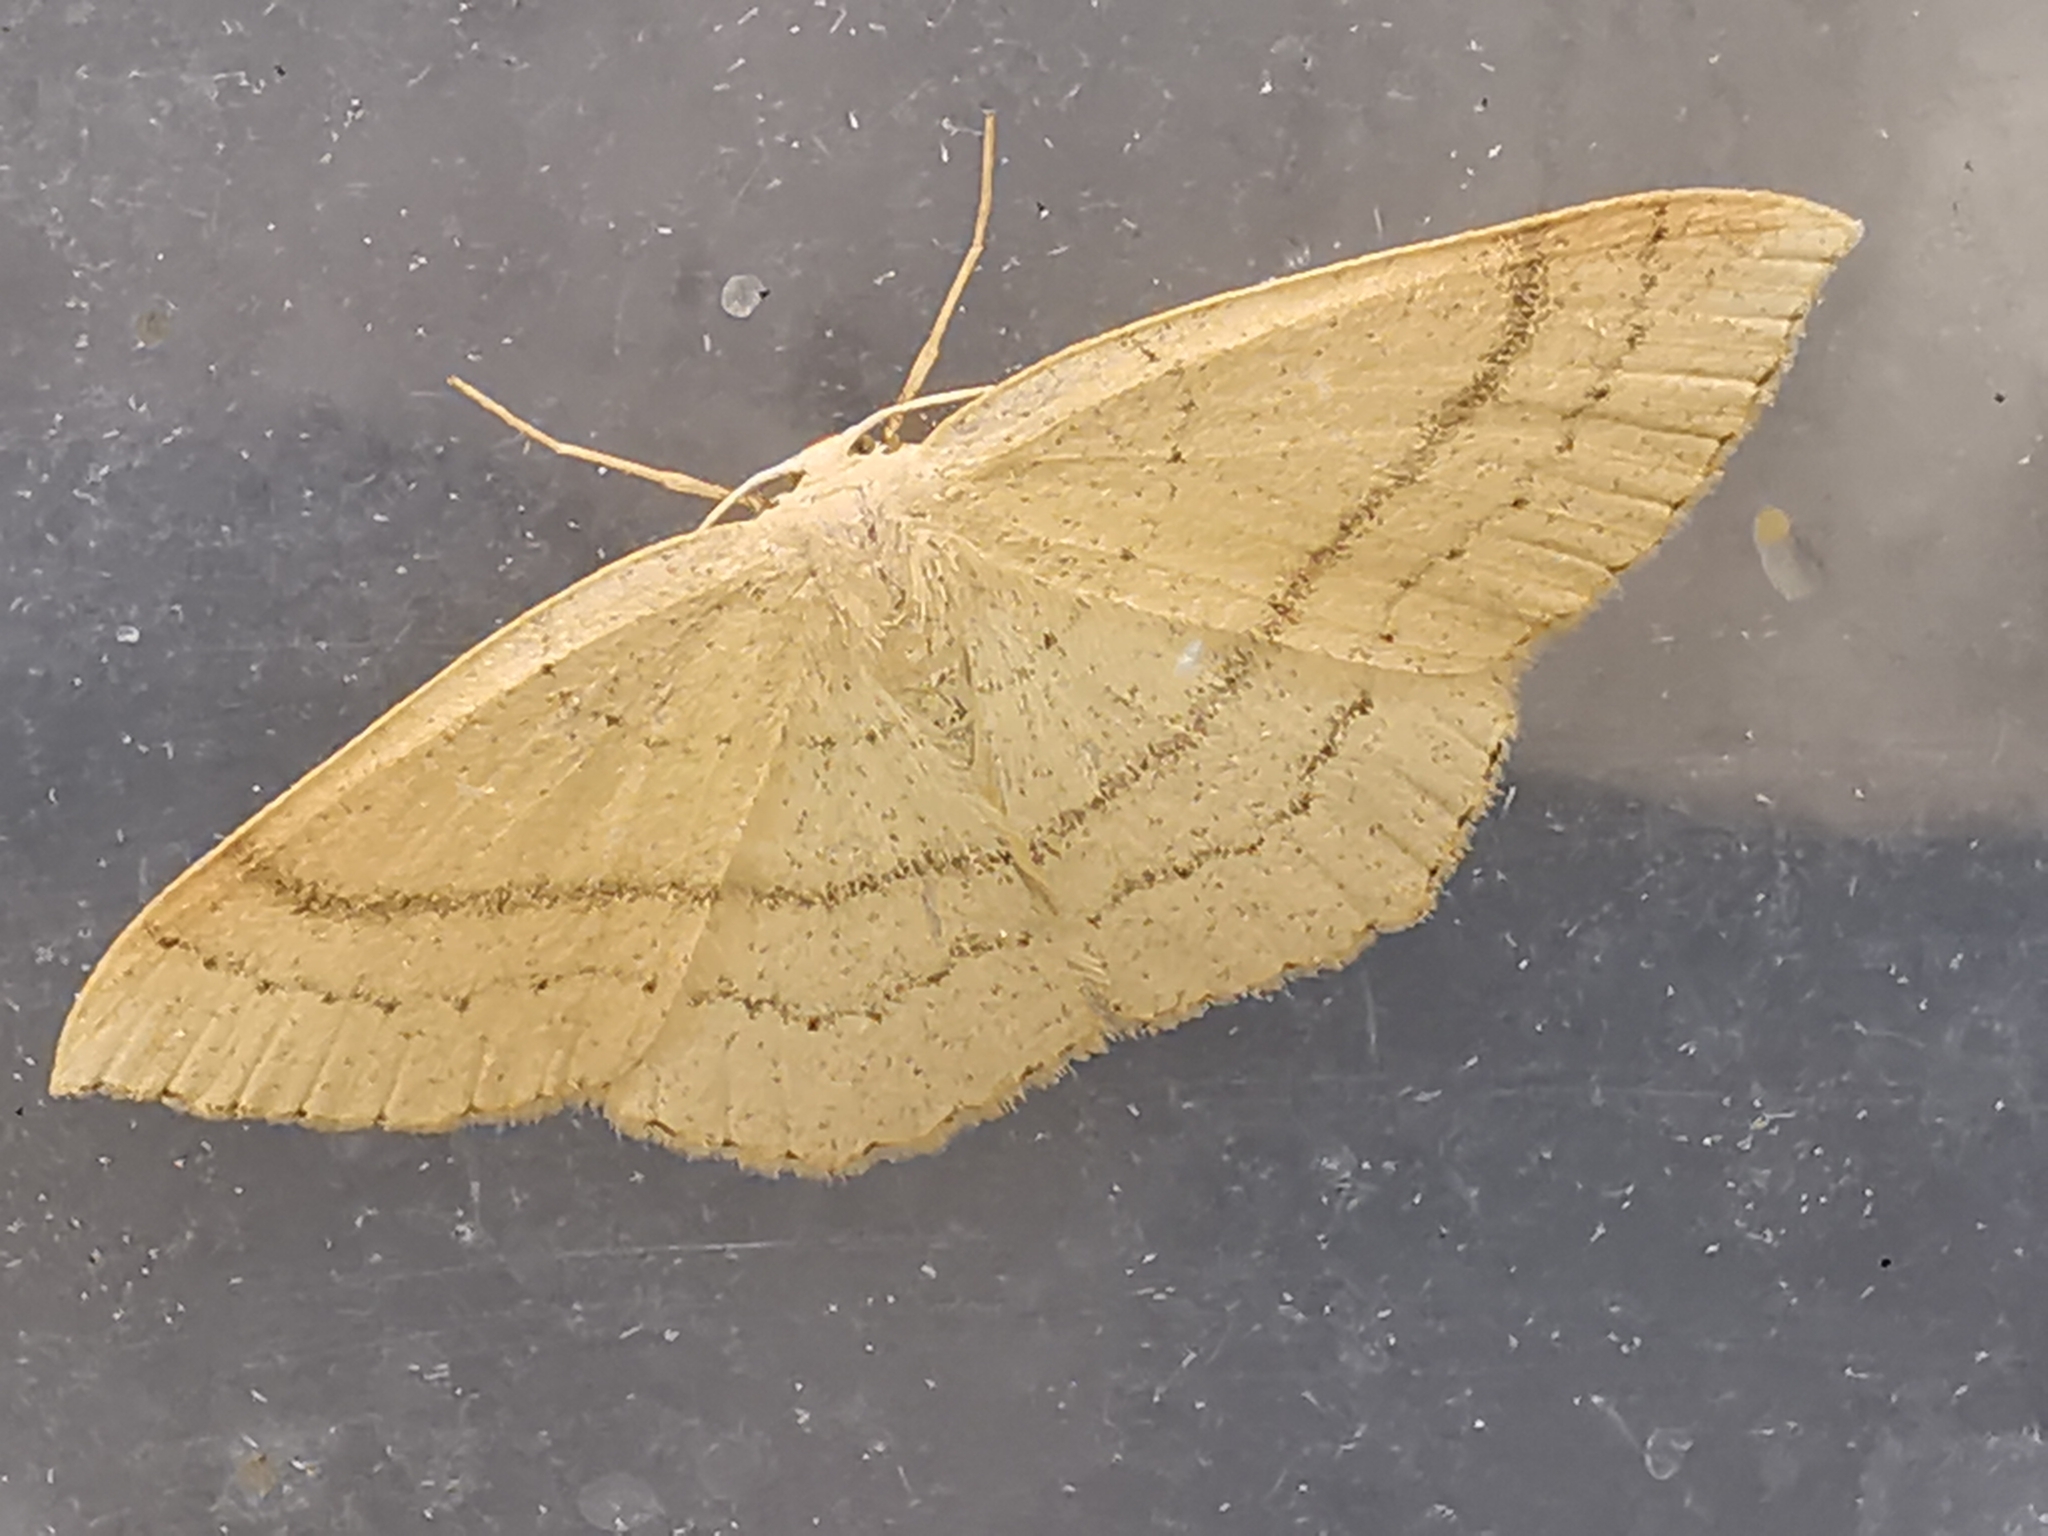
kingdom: Animalia
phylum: Arthropoda
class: Insecta
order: Lepidoptera
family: Geometridae
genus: Cyclophora
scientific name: Cyclophora punctaria
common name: Maiden's blush
